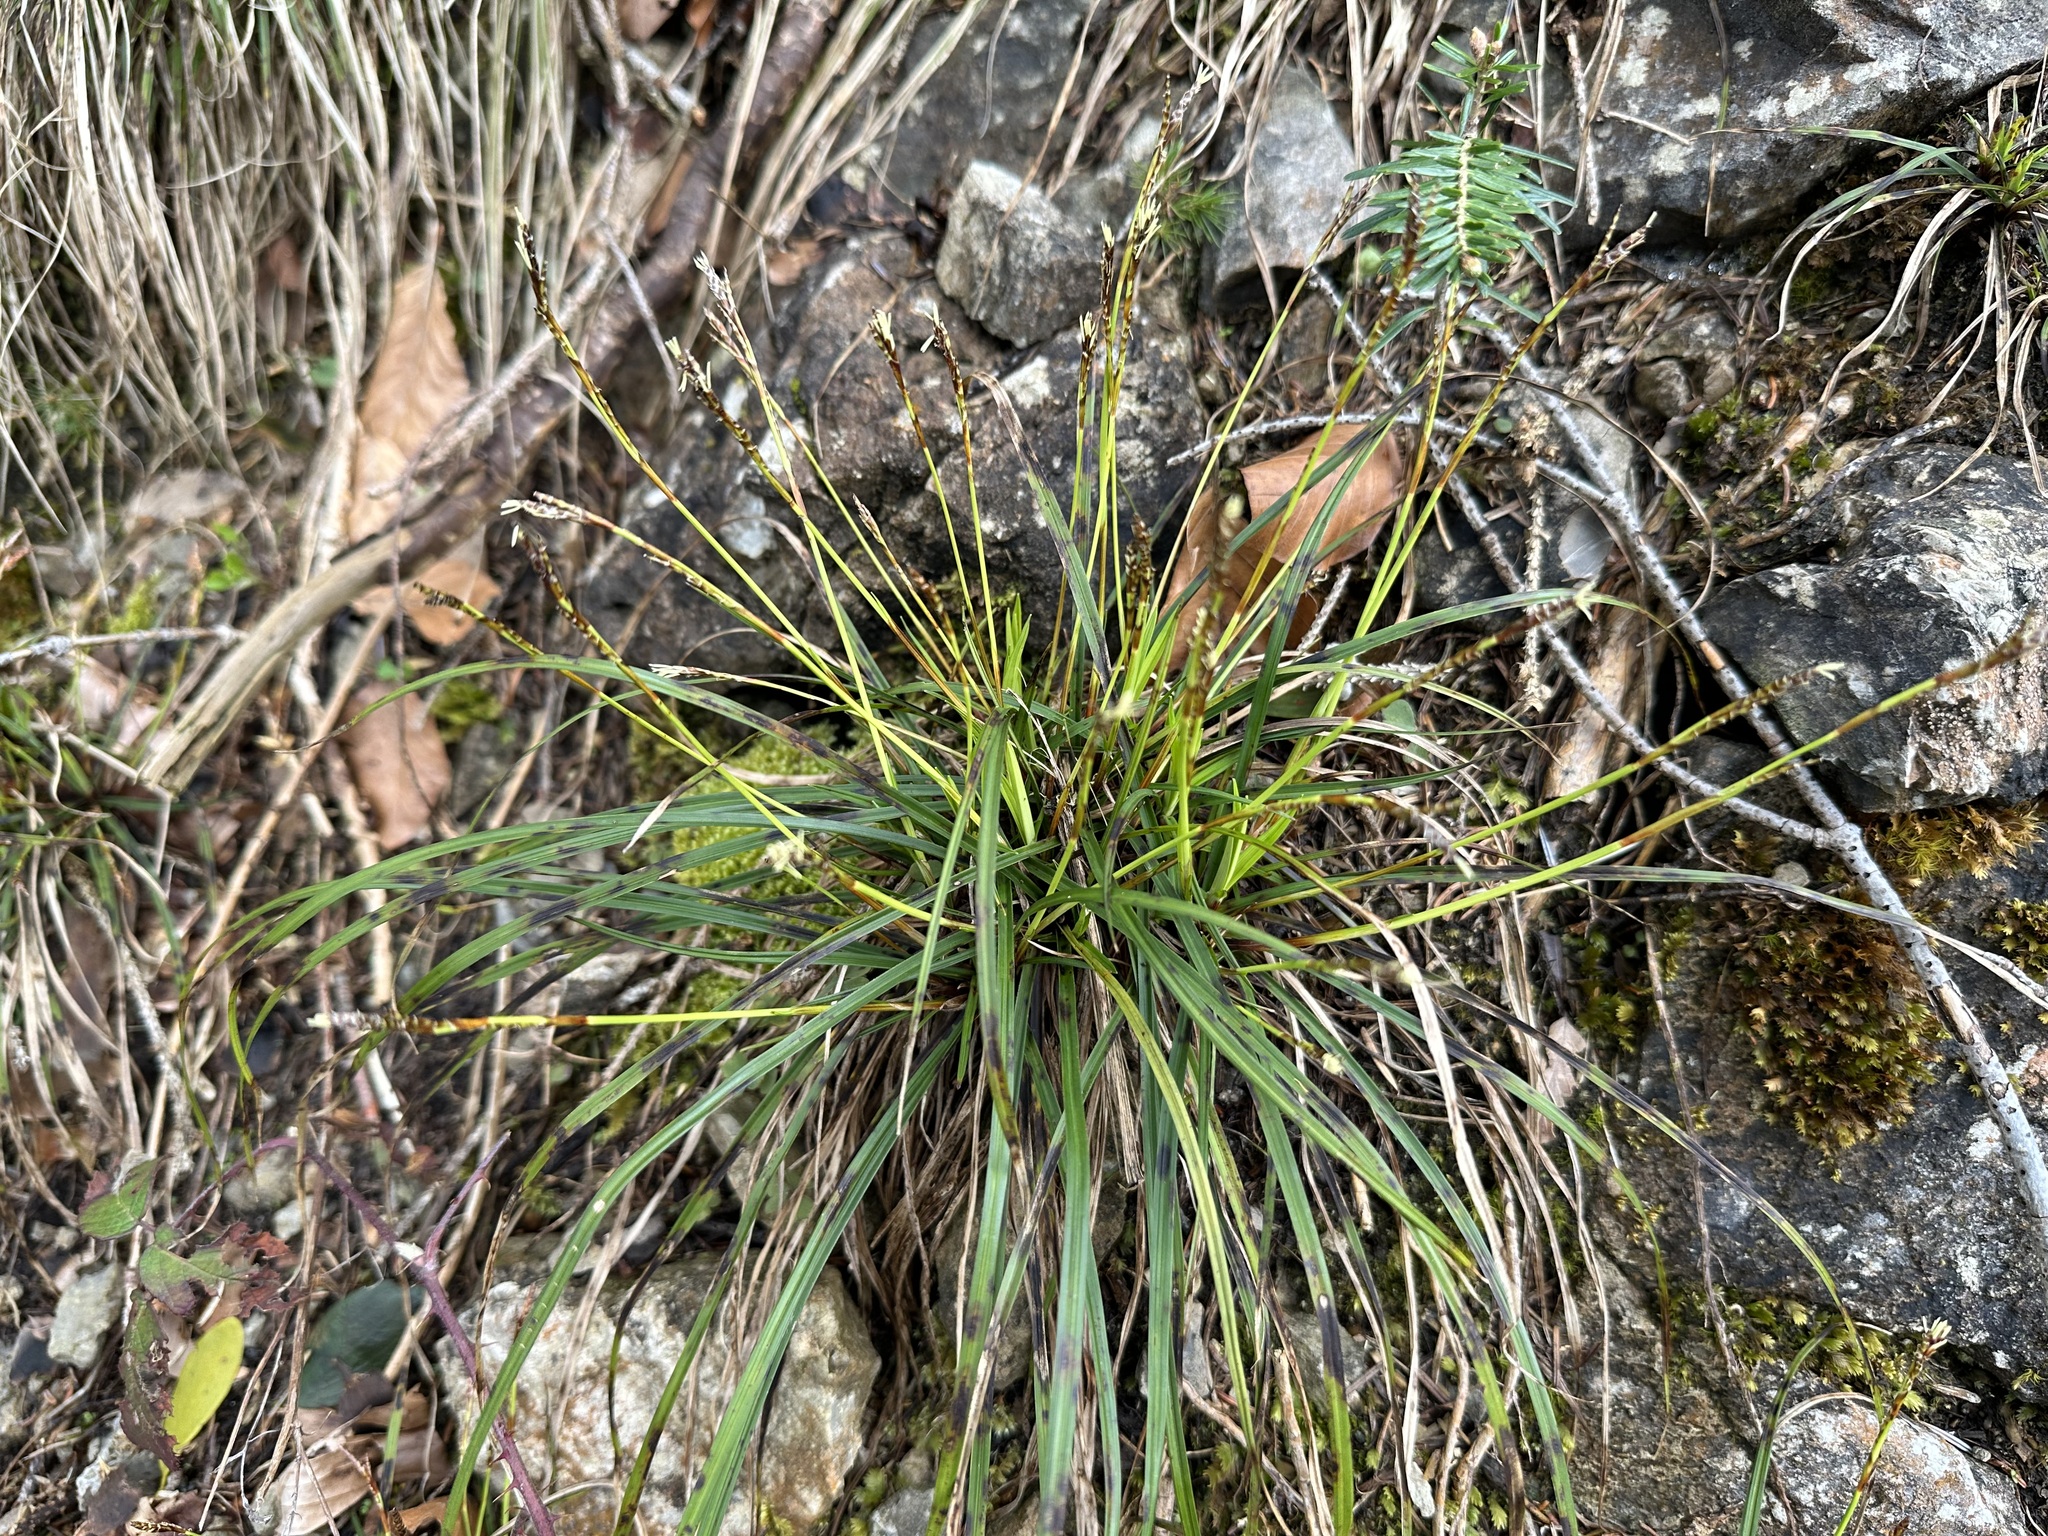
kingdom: Plantae
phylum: Tracheophyta
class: Liliopsida
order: Poales
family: Cyperaceae
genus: Carex
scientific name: Carex digitata
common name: Fingered sedge
